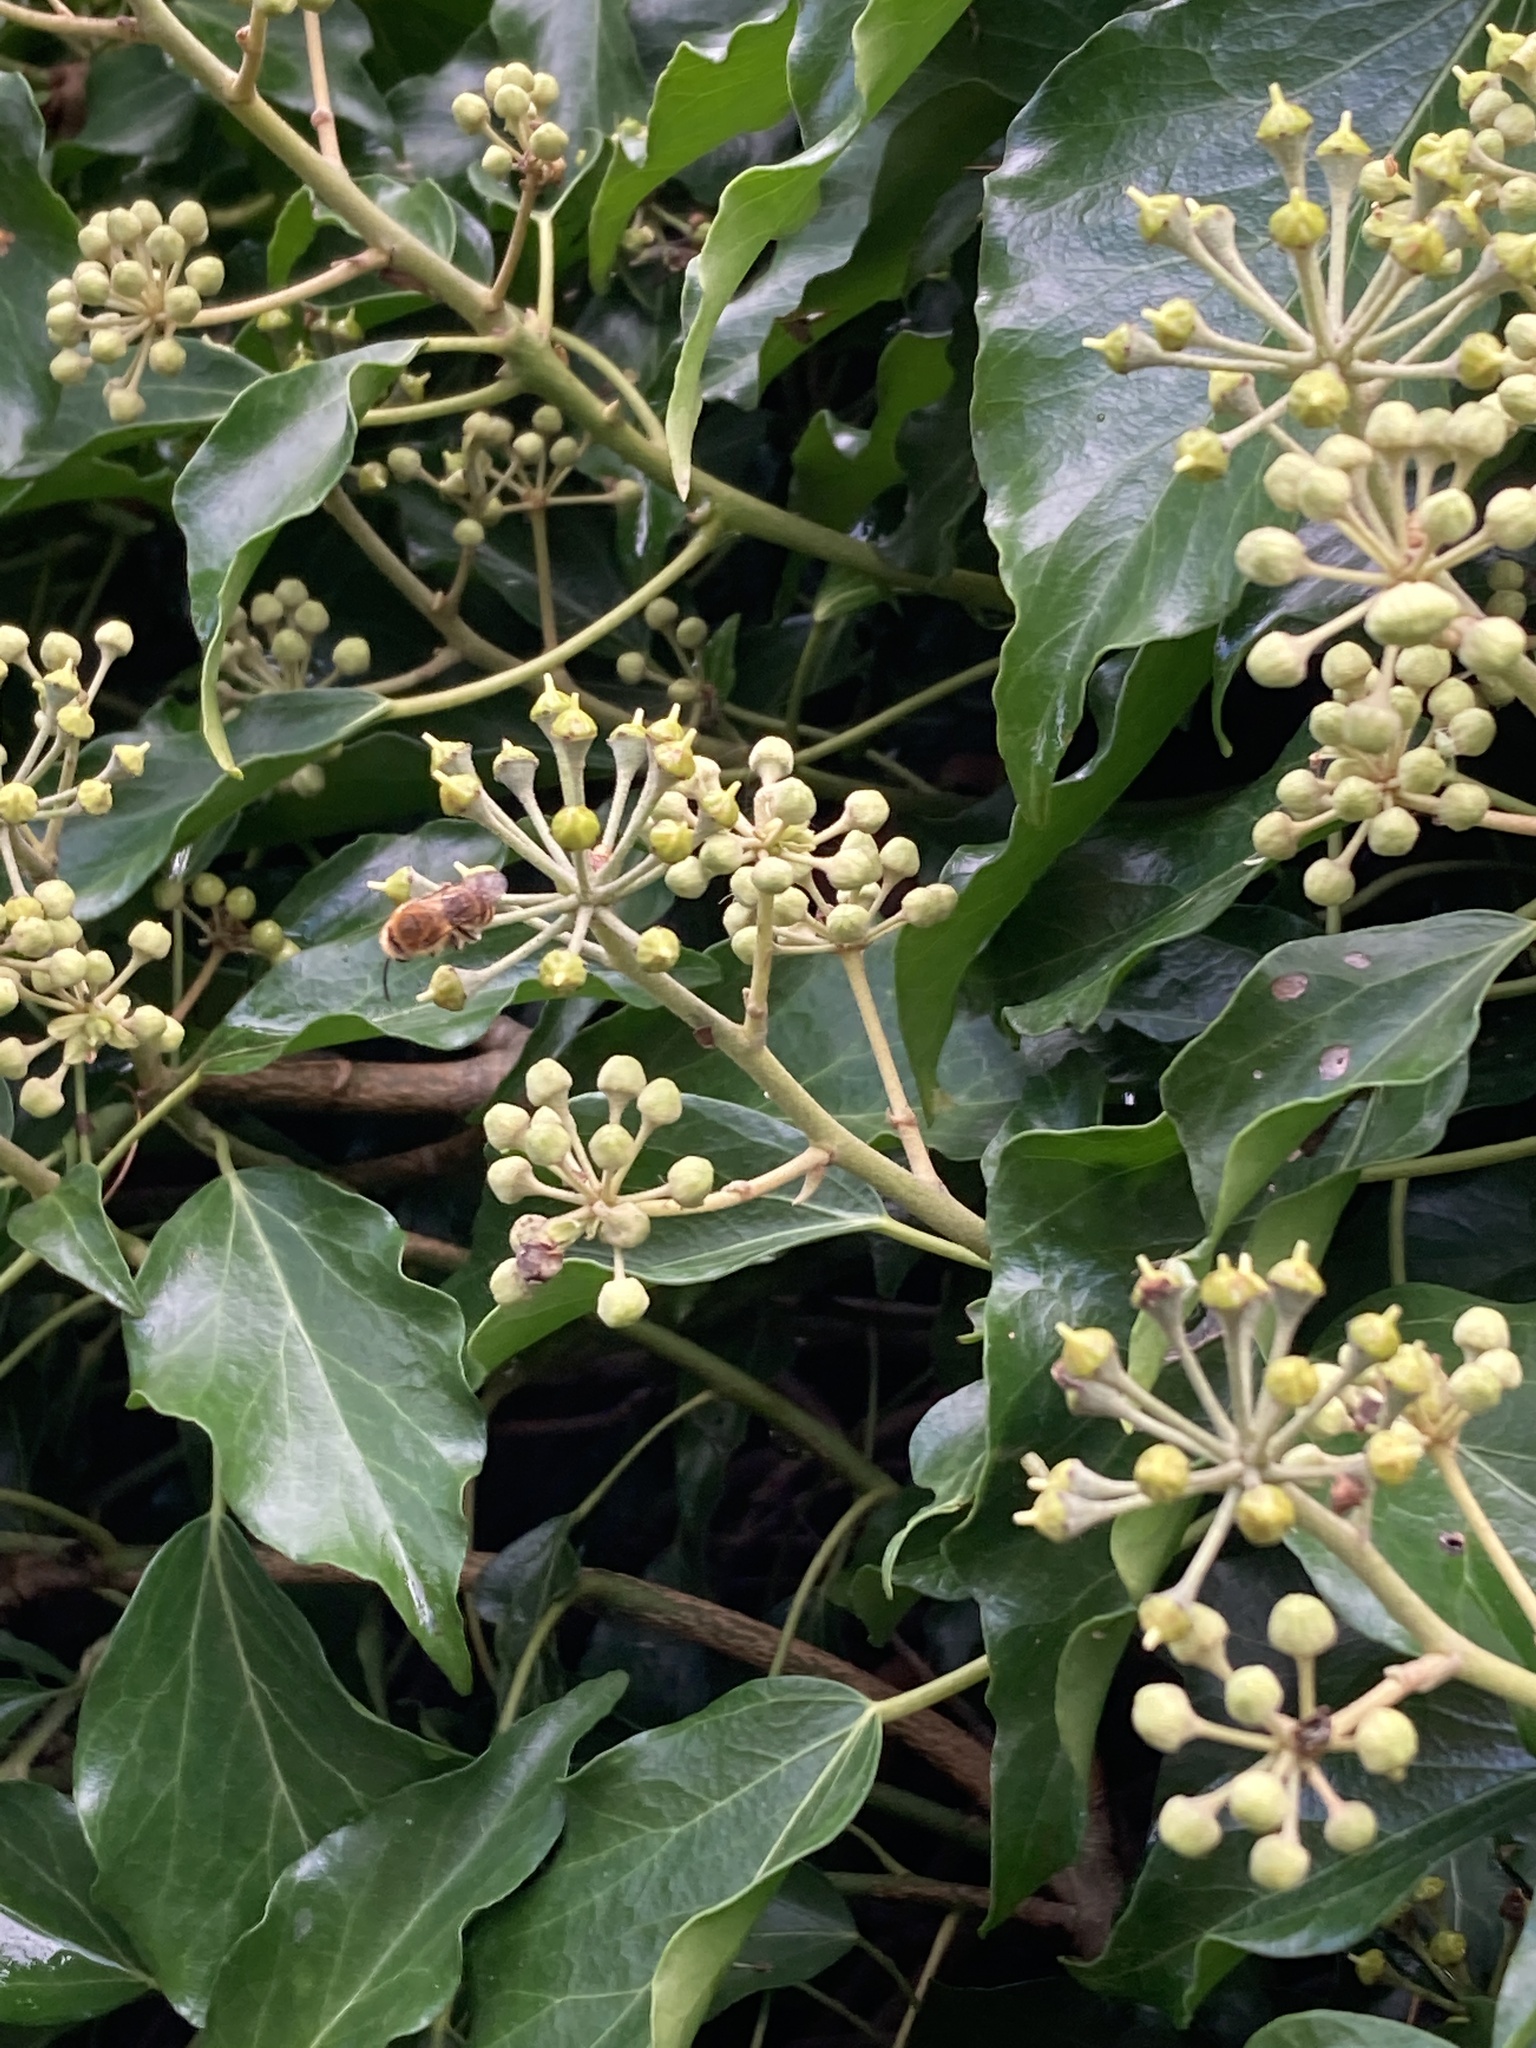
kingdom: Animalia
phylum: Arthropoda
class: Insecta
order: Hymenoptera
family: Colletidae
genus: Colletes
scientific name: Colletes hederae
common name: Ivy bee
